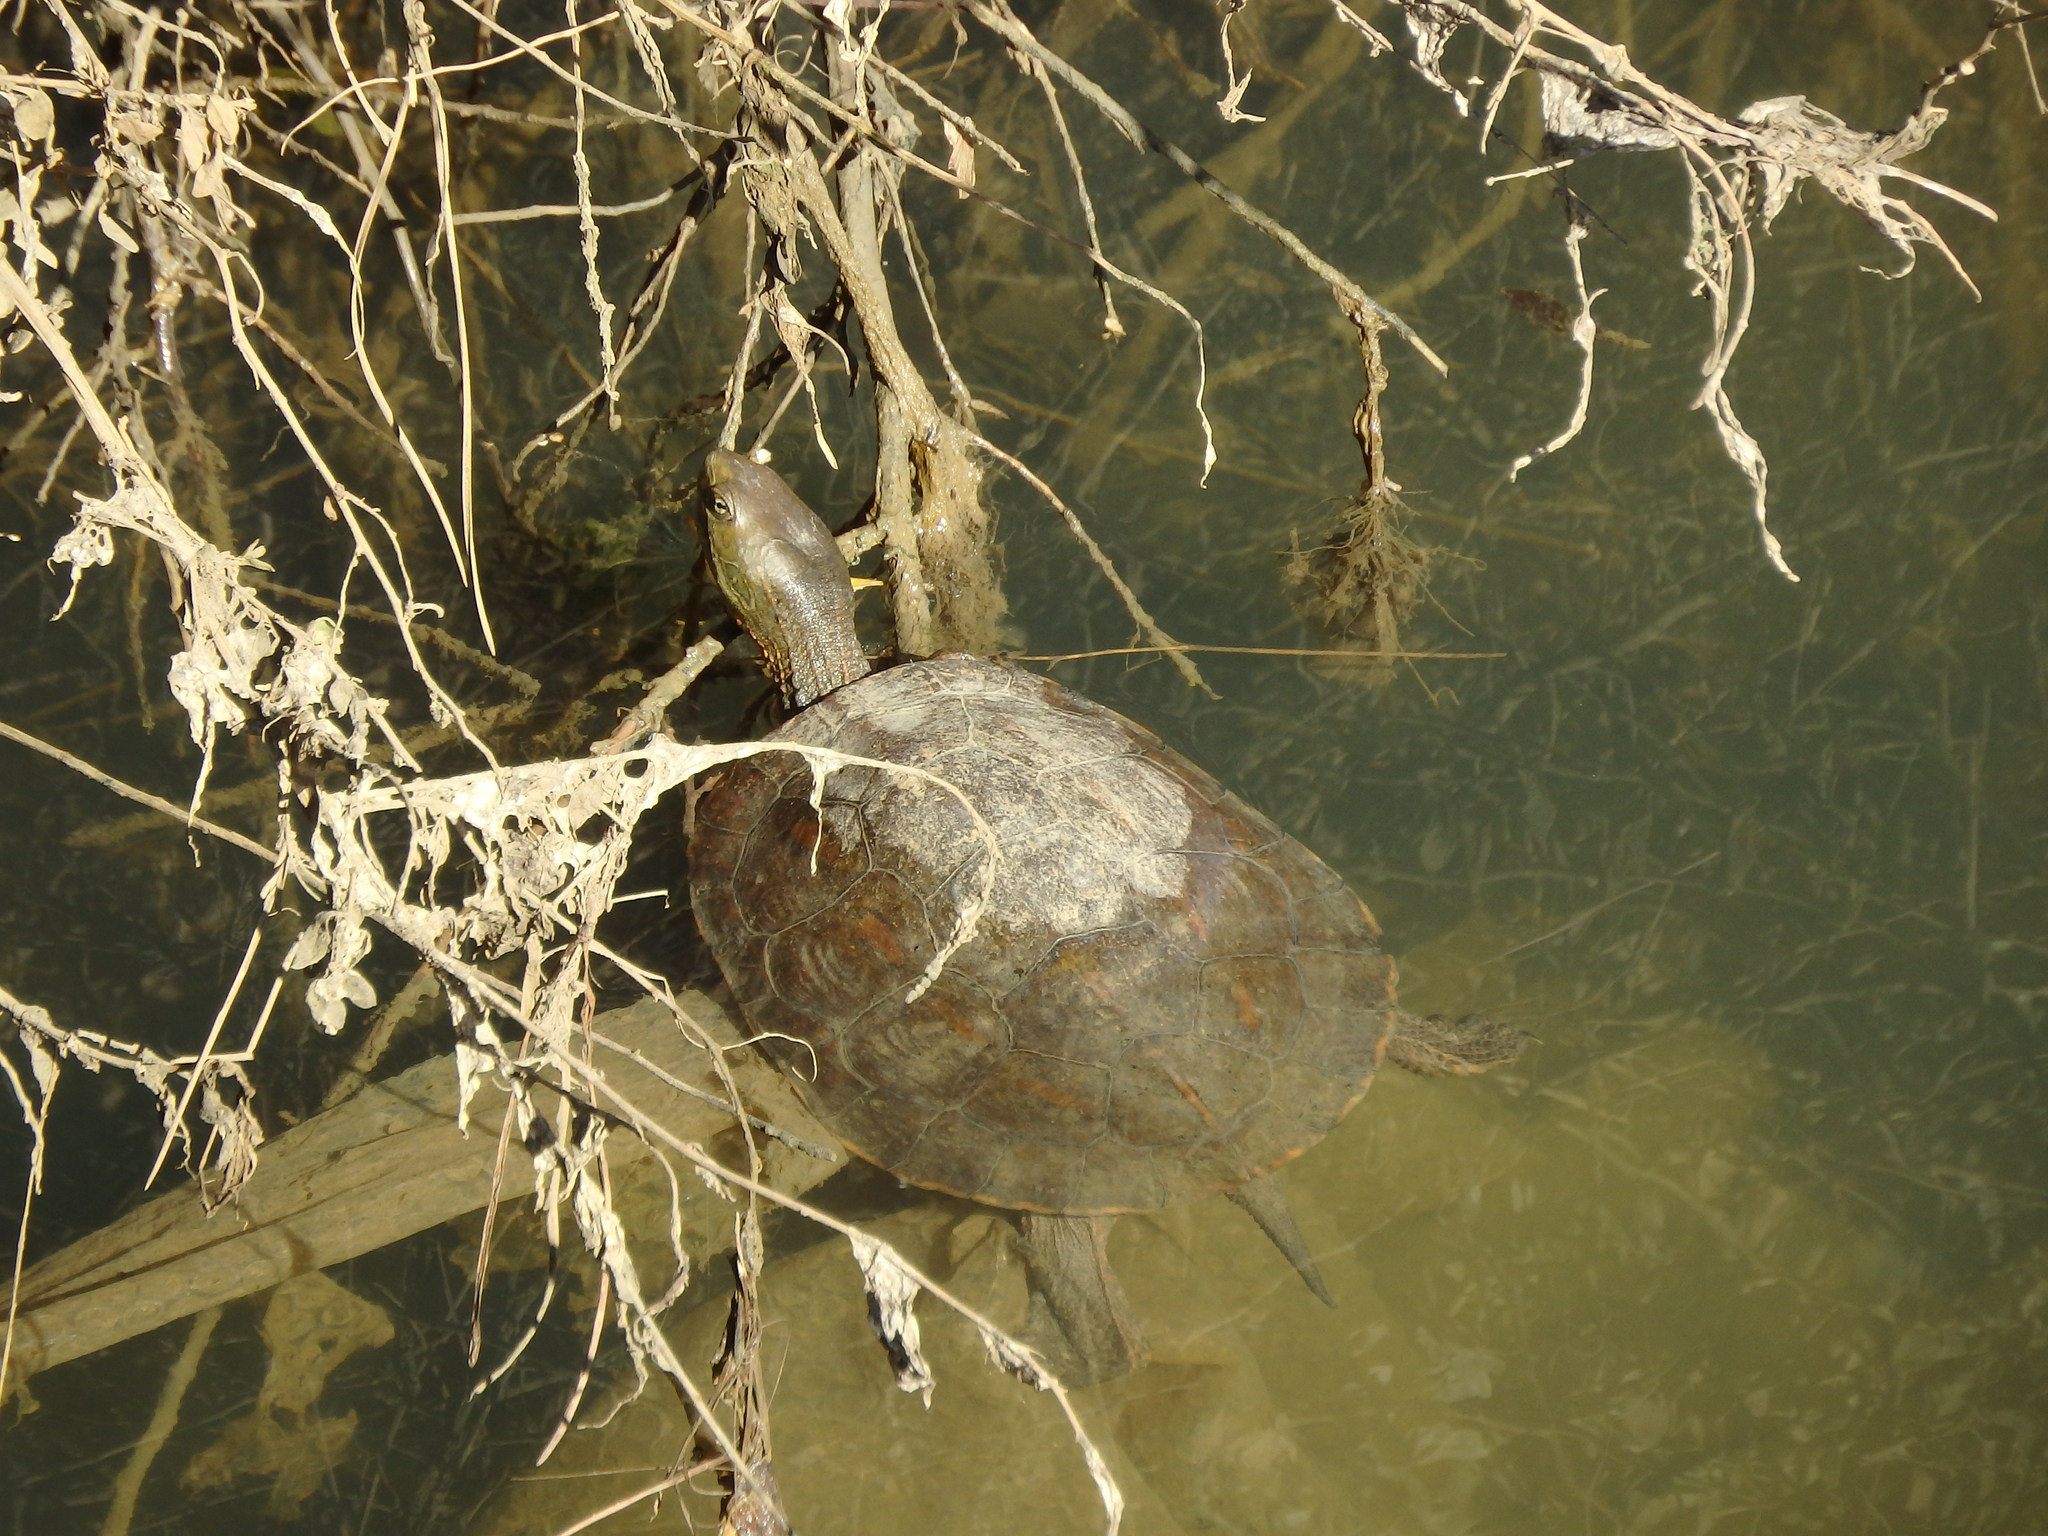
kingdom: Animalia
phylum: Chordata
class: Testudines
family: Geoemydidae
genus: Mauremys
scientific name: Mauremys leprosa
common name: Mediterranean pond turtle
